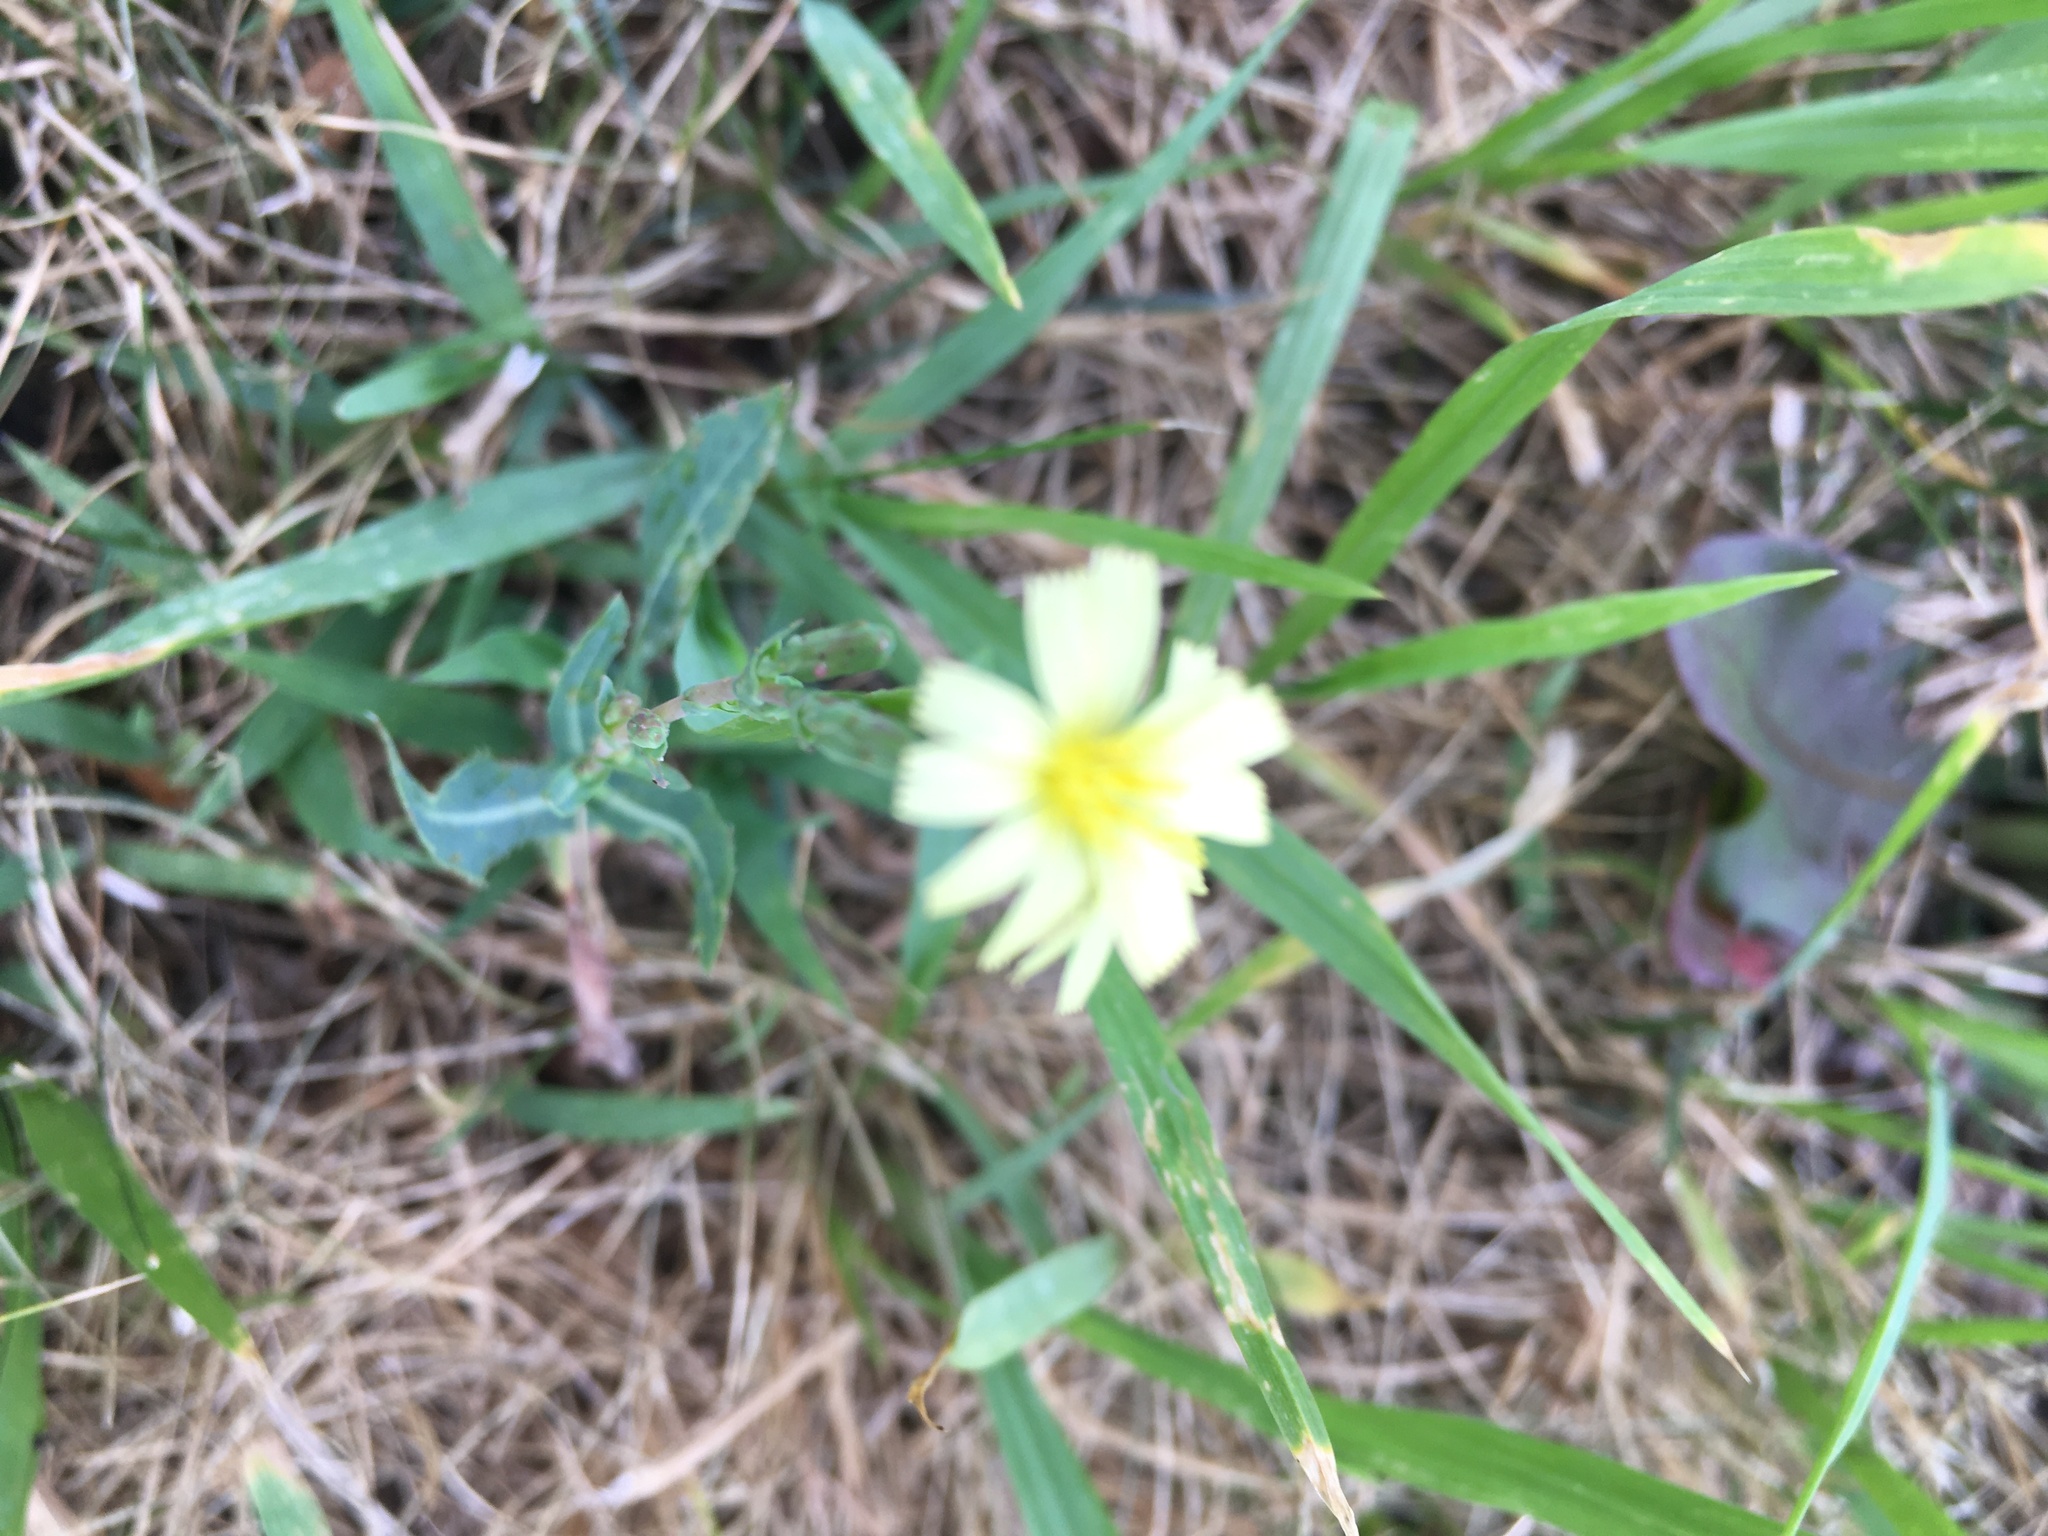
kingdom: Plantae
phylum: Tracheophyta
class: Magnoliopsida
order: Asterales
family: Asteraceae
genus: Lactuca
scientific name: Lactuca serriola
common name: Prickly lettuce
